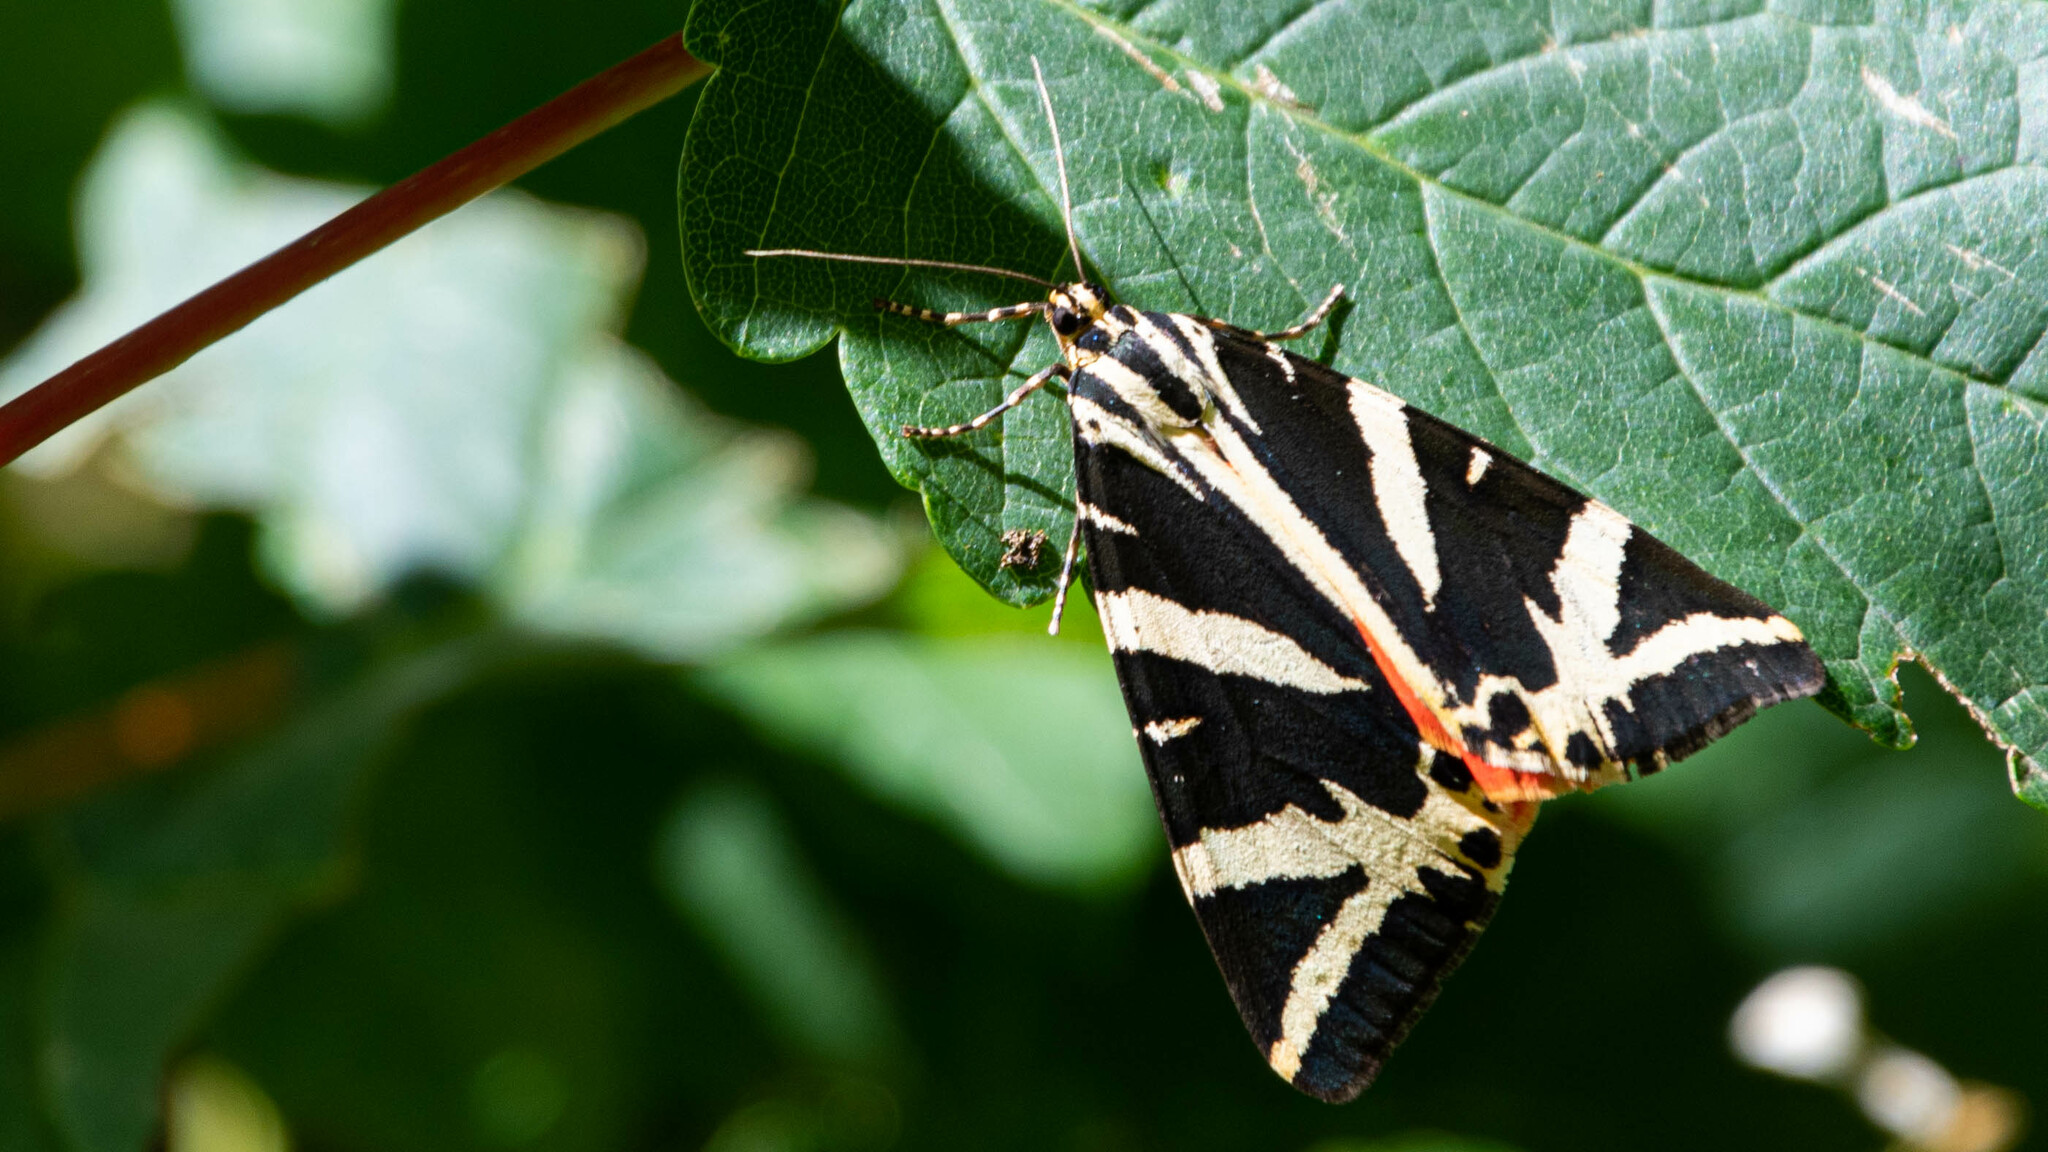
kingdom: Animalia
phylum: Arthropoda
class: Insecta
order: Lepidoptera
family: Erebidae
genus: Euplagia
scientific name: Euplagia quadripunctaria
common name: Jersey tiger
